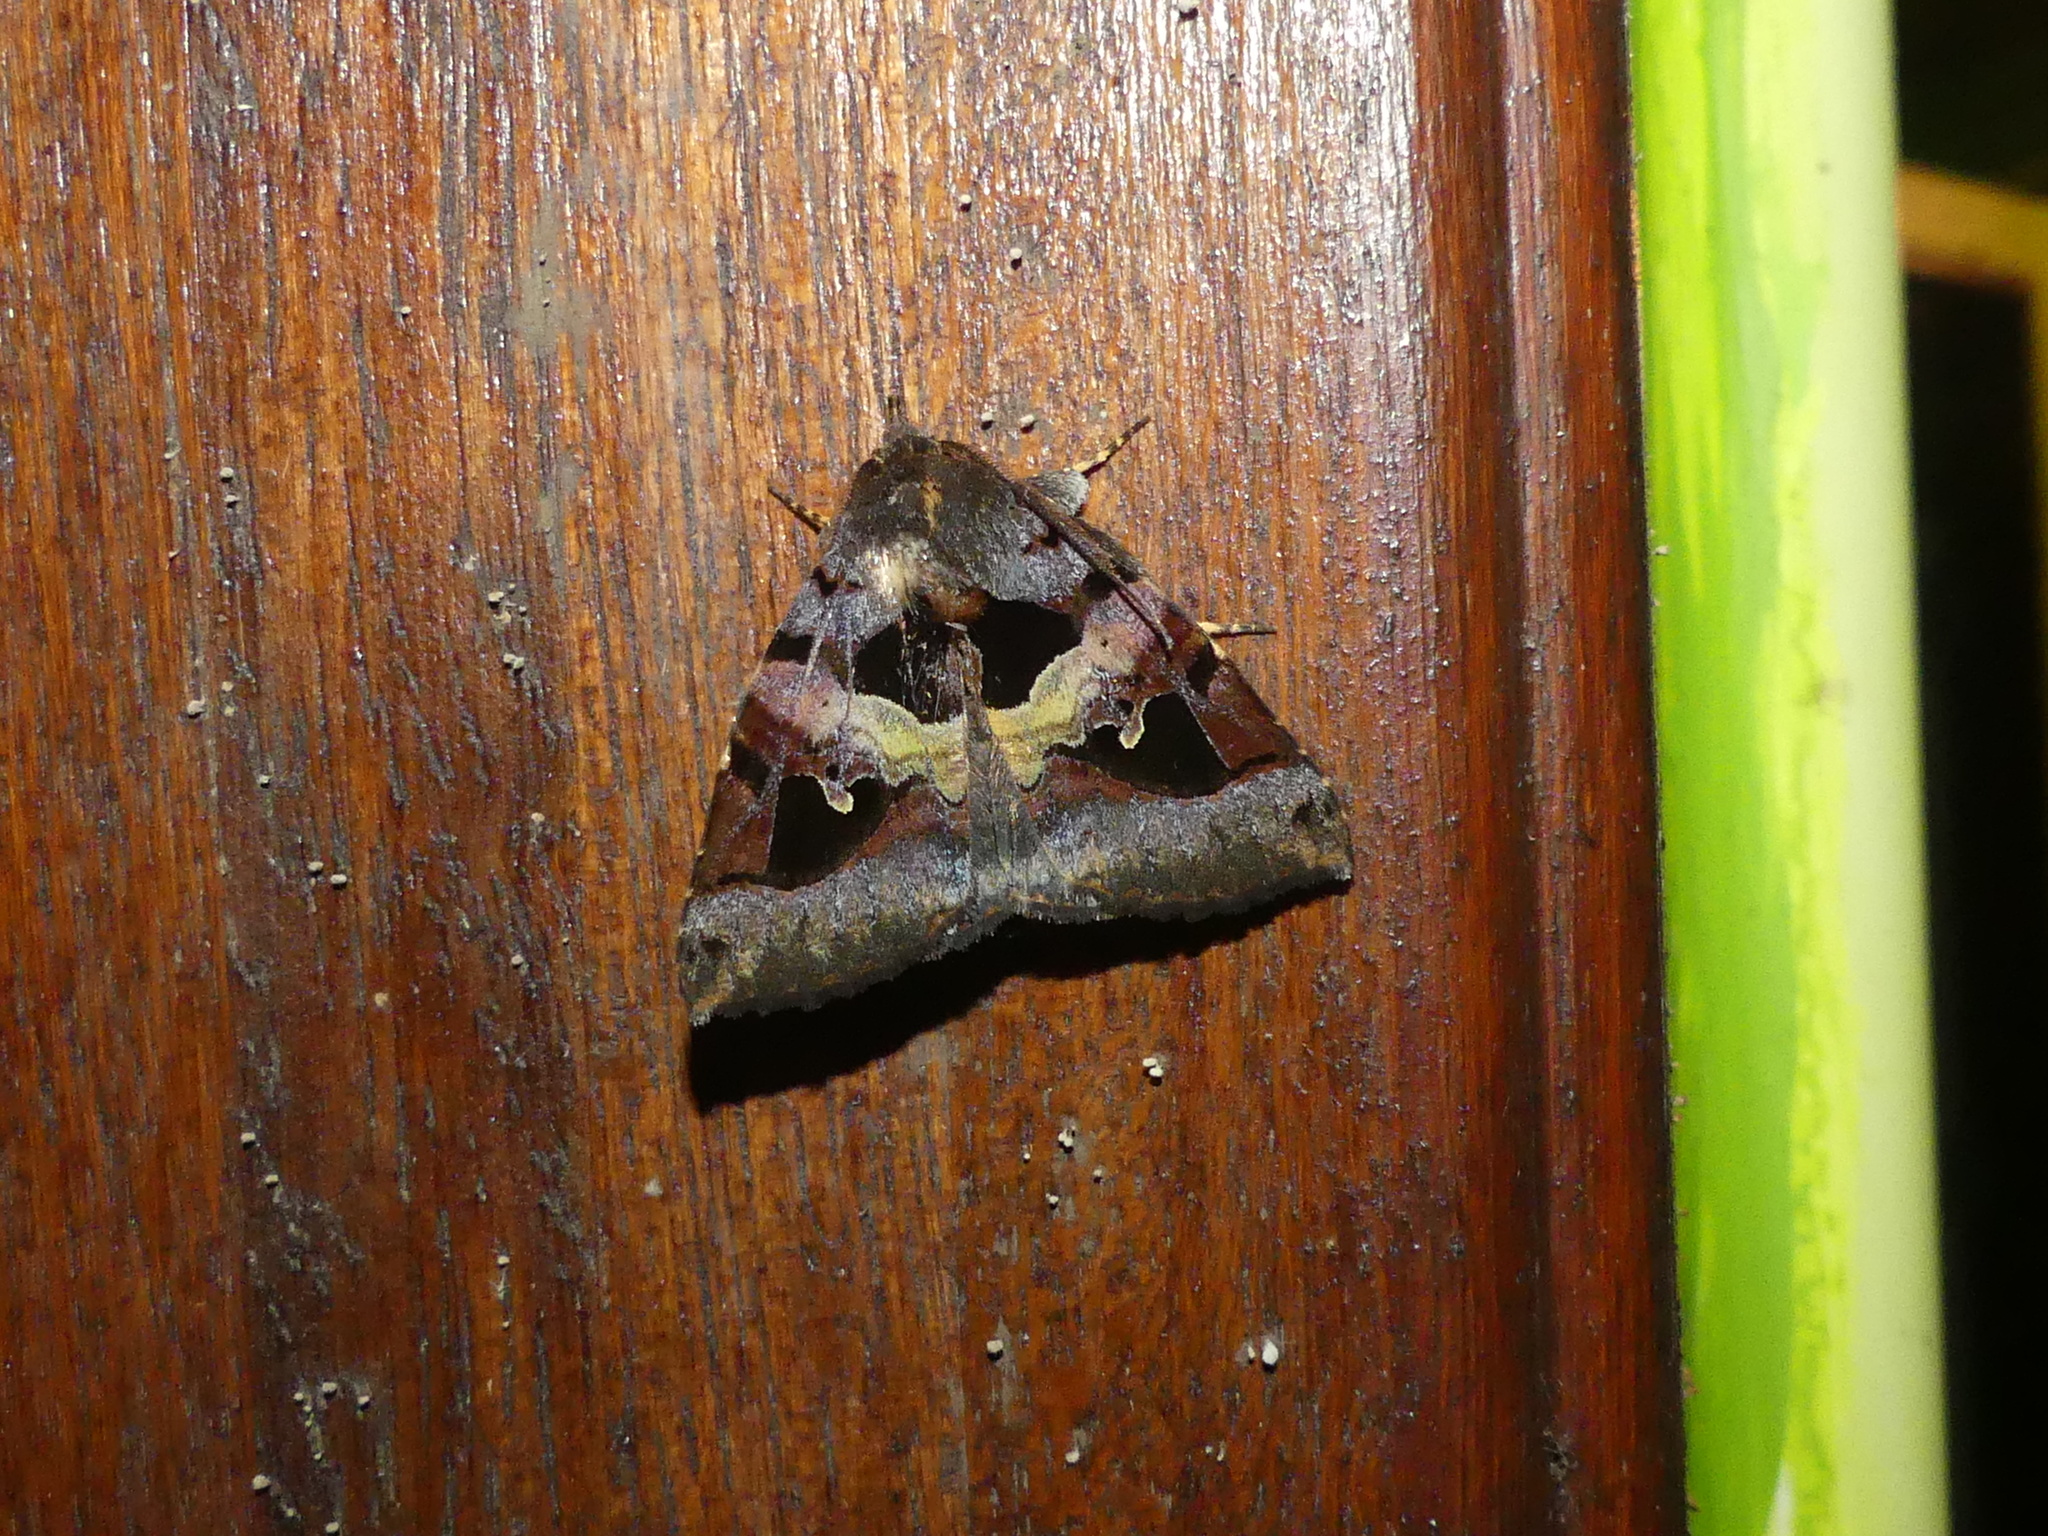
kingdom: Animalia
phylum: Arthropoda
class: Insecta
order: Lepidoptera
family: Erebidae
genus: Avatha
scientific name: Avatha heterographa
